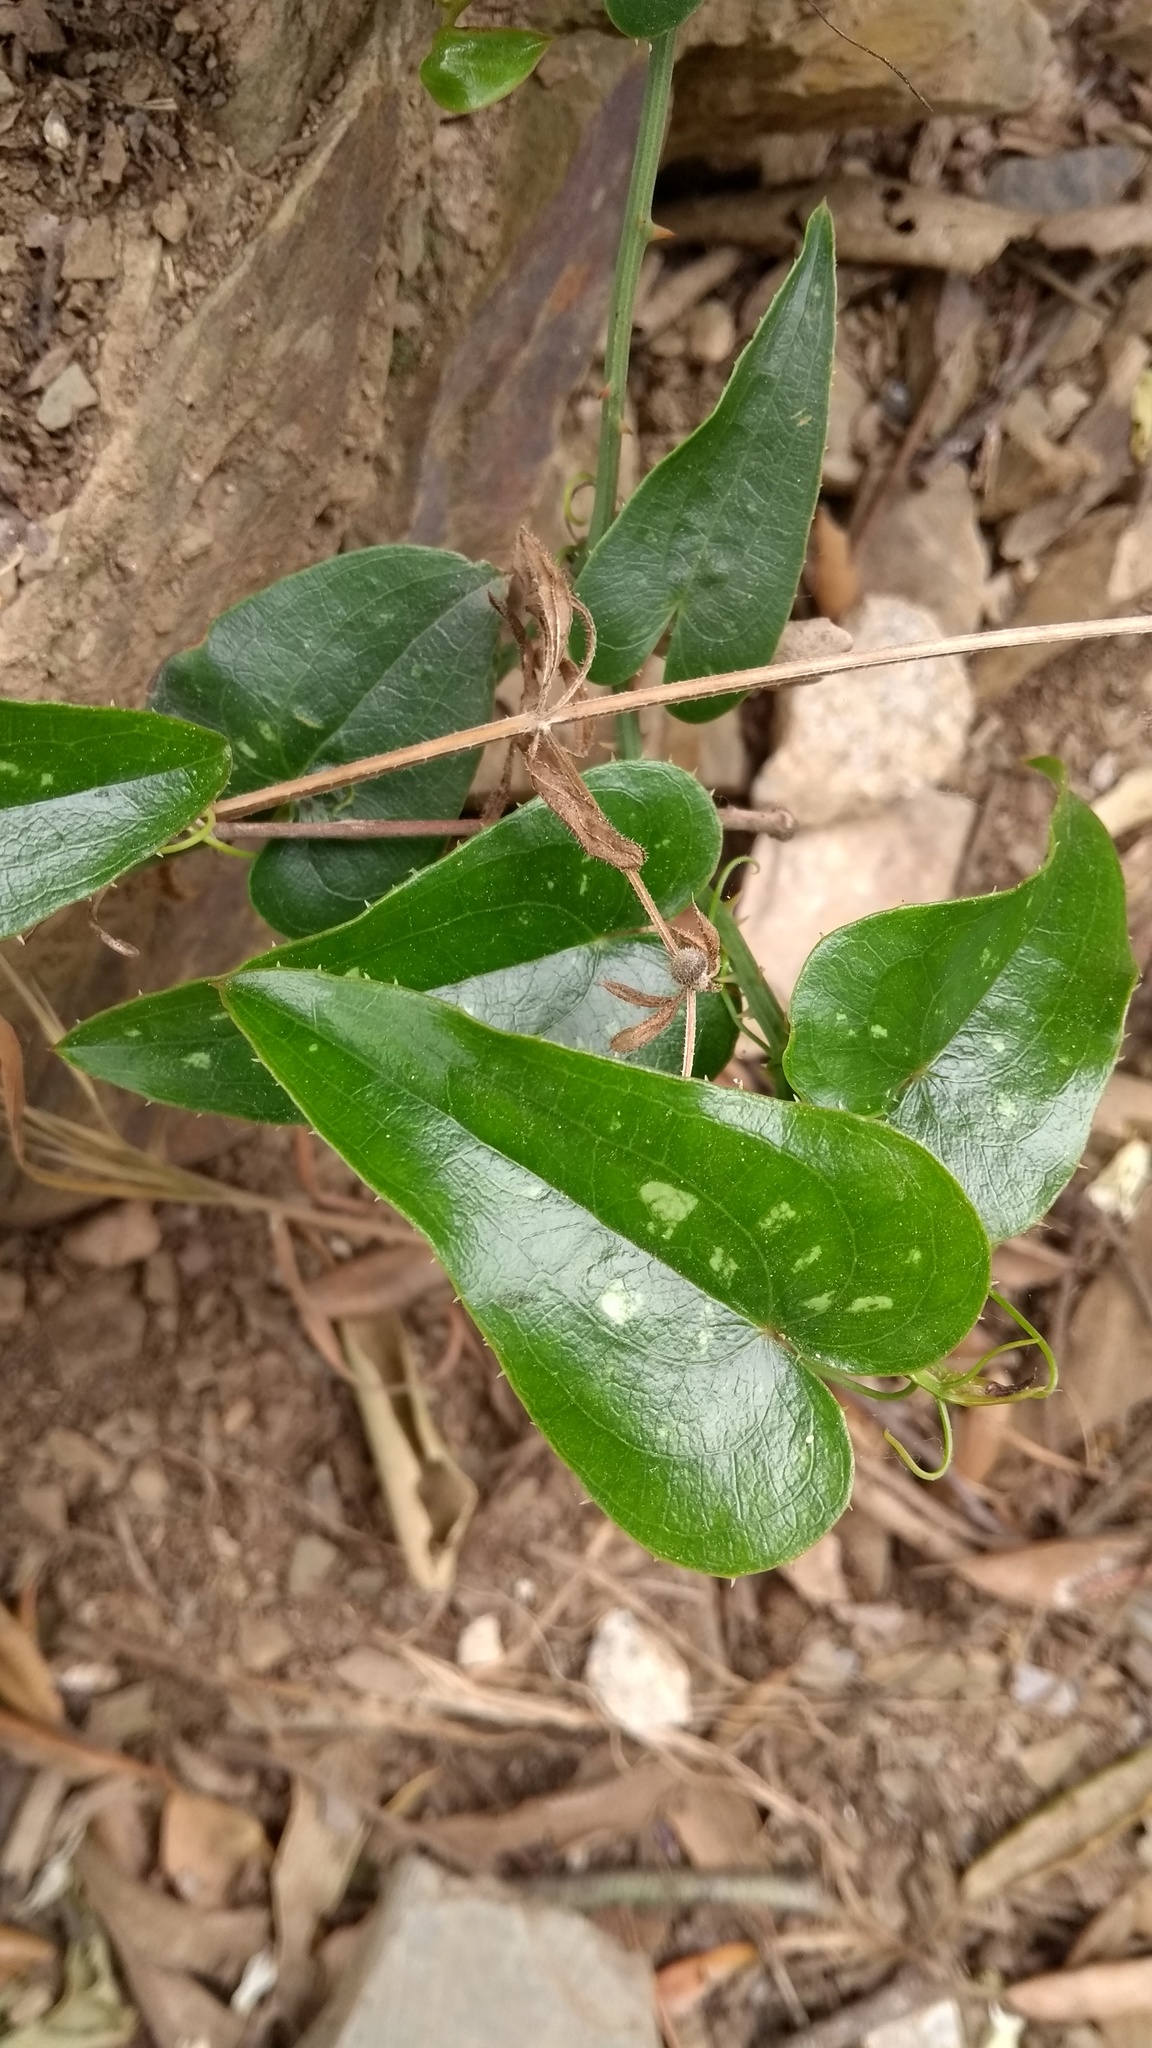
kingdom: Plantae
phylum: Tracheophyta
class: Liliopsida
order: Liliales
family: Smilacaceae
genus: Smilax
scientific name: Smilax aspera
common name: Common smilax
